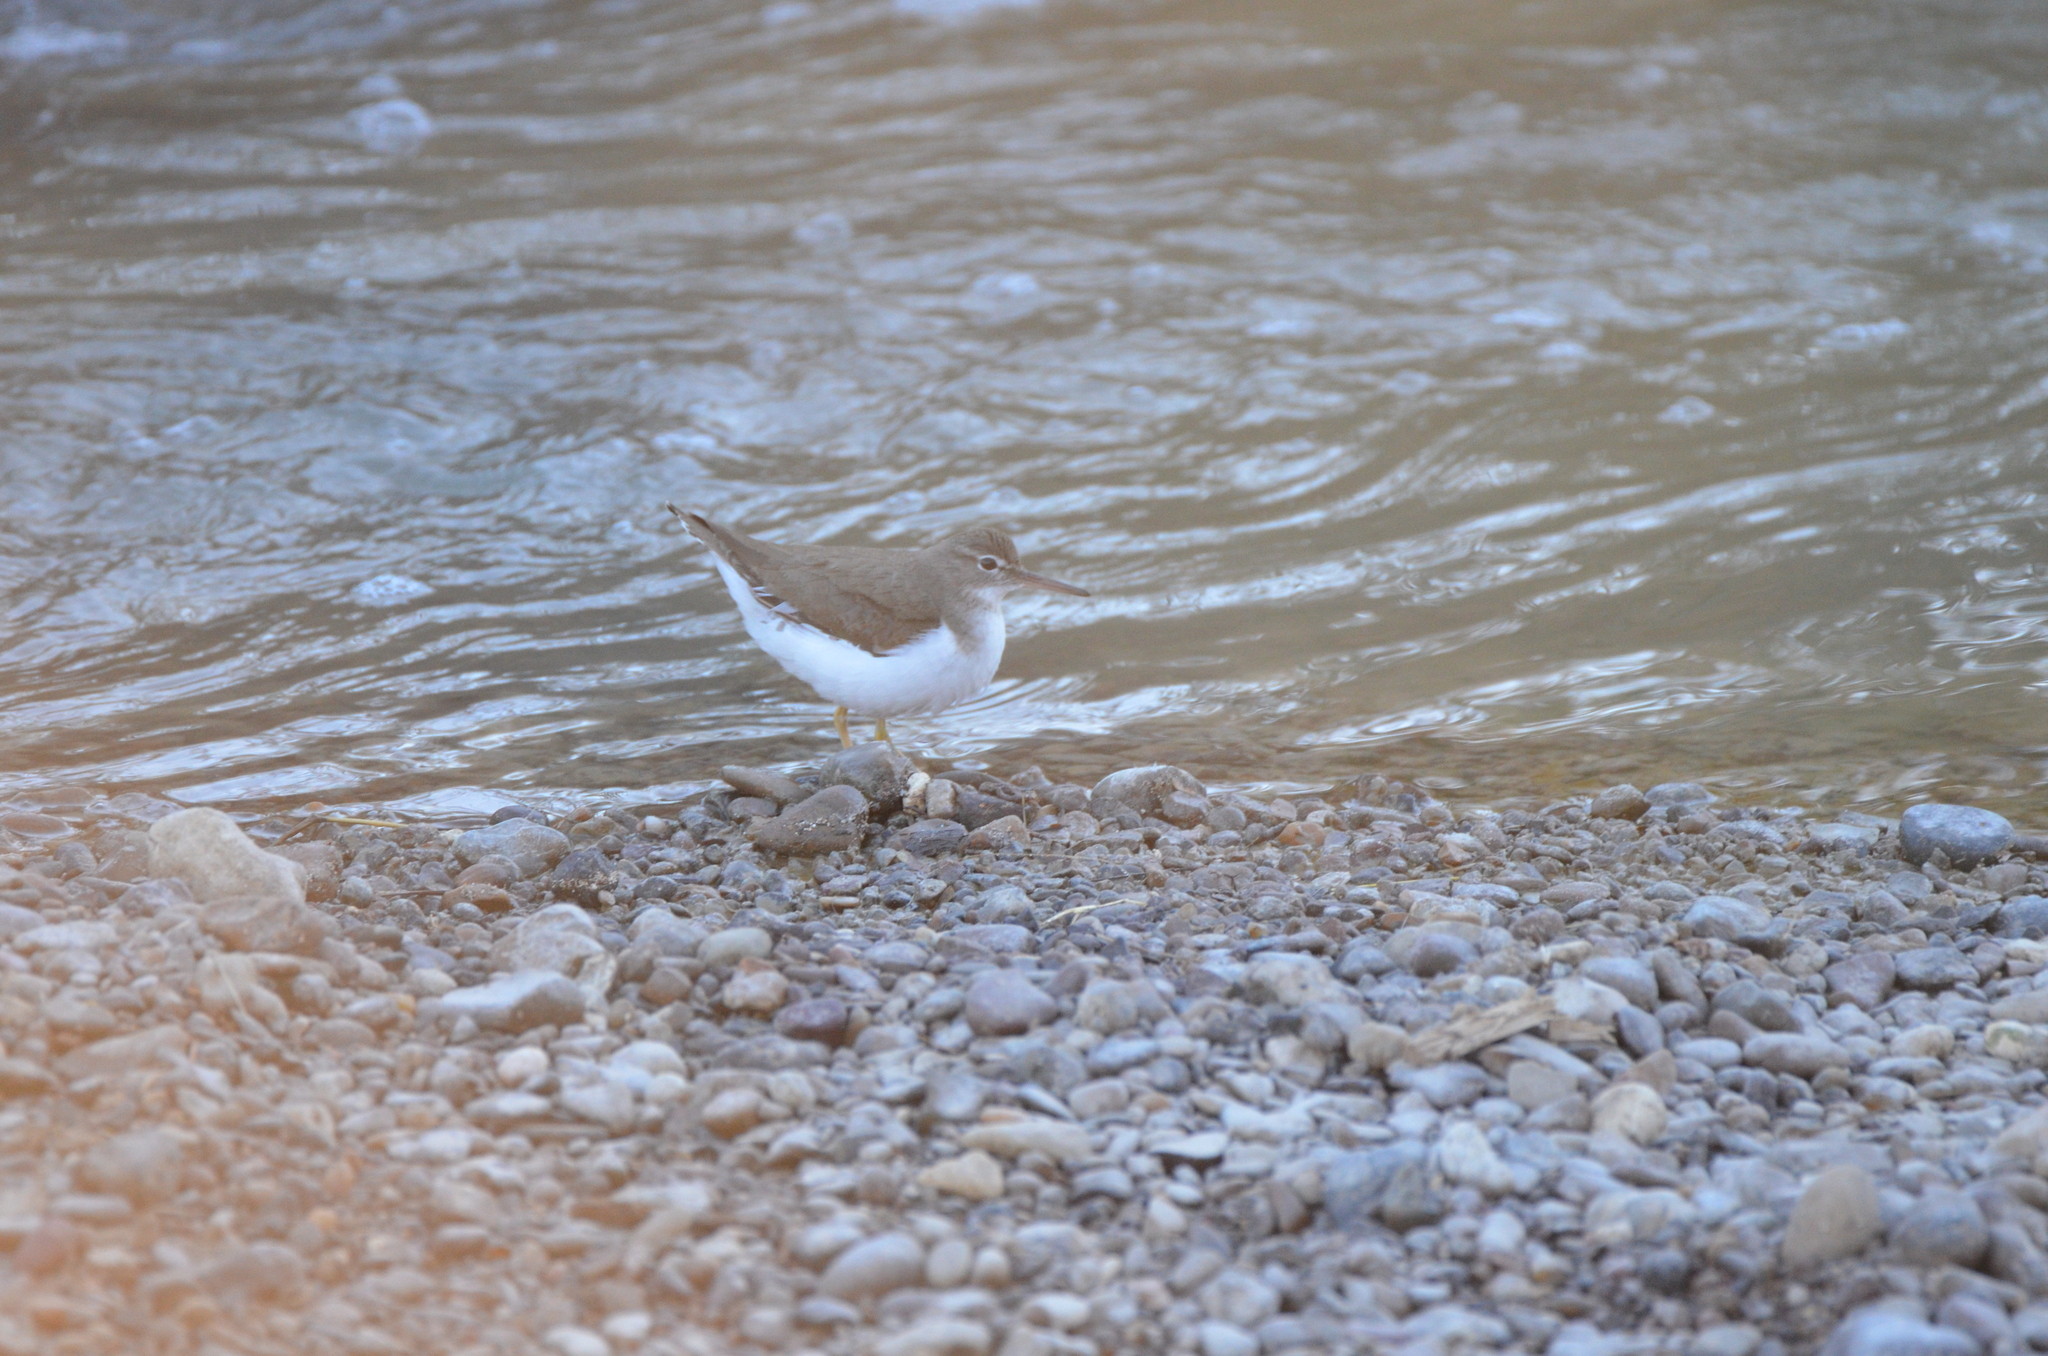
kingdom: Animalia
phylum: Chordata
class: Aves
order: Charadriiformes
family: Scolopacidae
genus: Actitis
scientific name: Actitis macularius
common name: Spotted sandpiper
